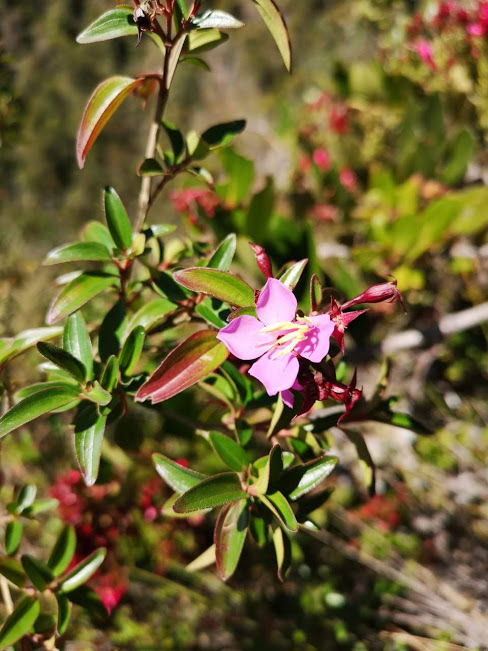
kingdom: Plantae
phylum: Tracheophyta
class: Magnoliopsida
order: Myrtales
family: Melastomataceae
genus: Monochaetum
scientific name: Monochaetum myrtoideum
